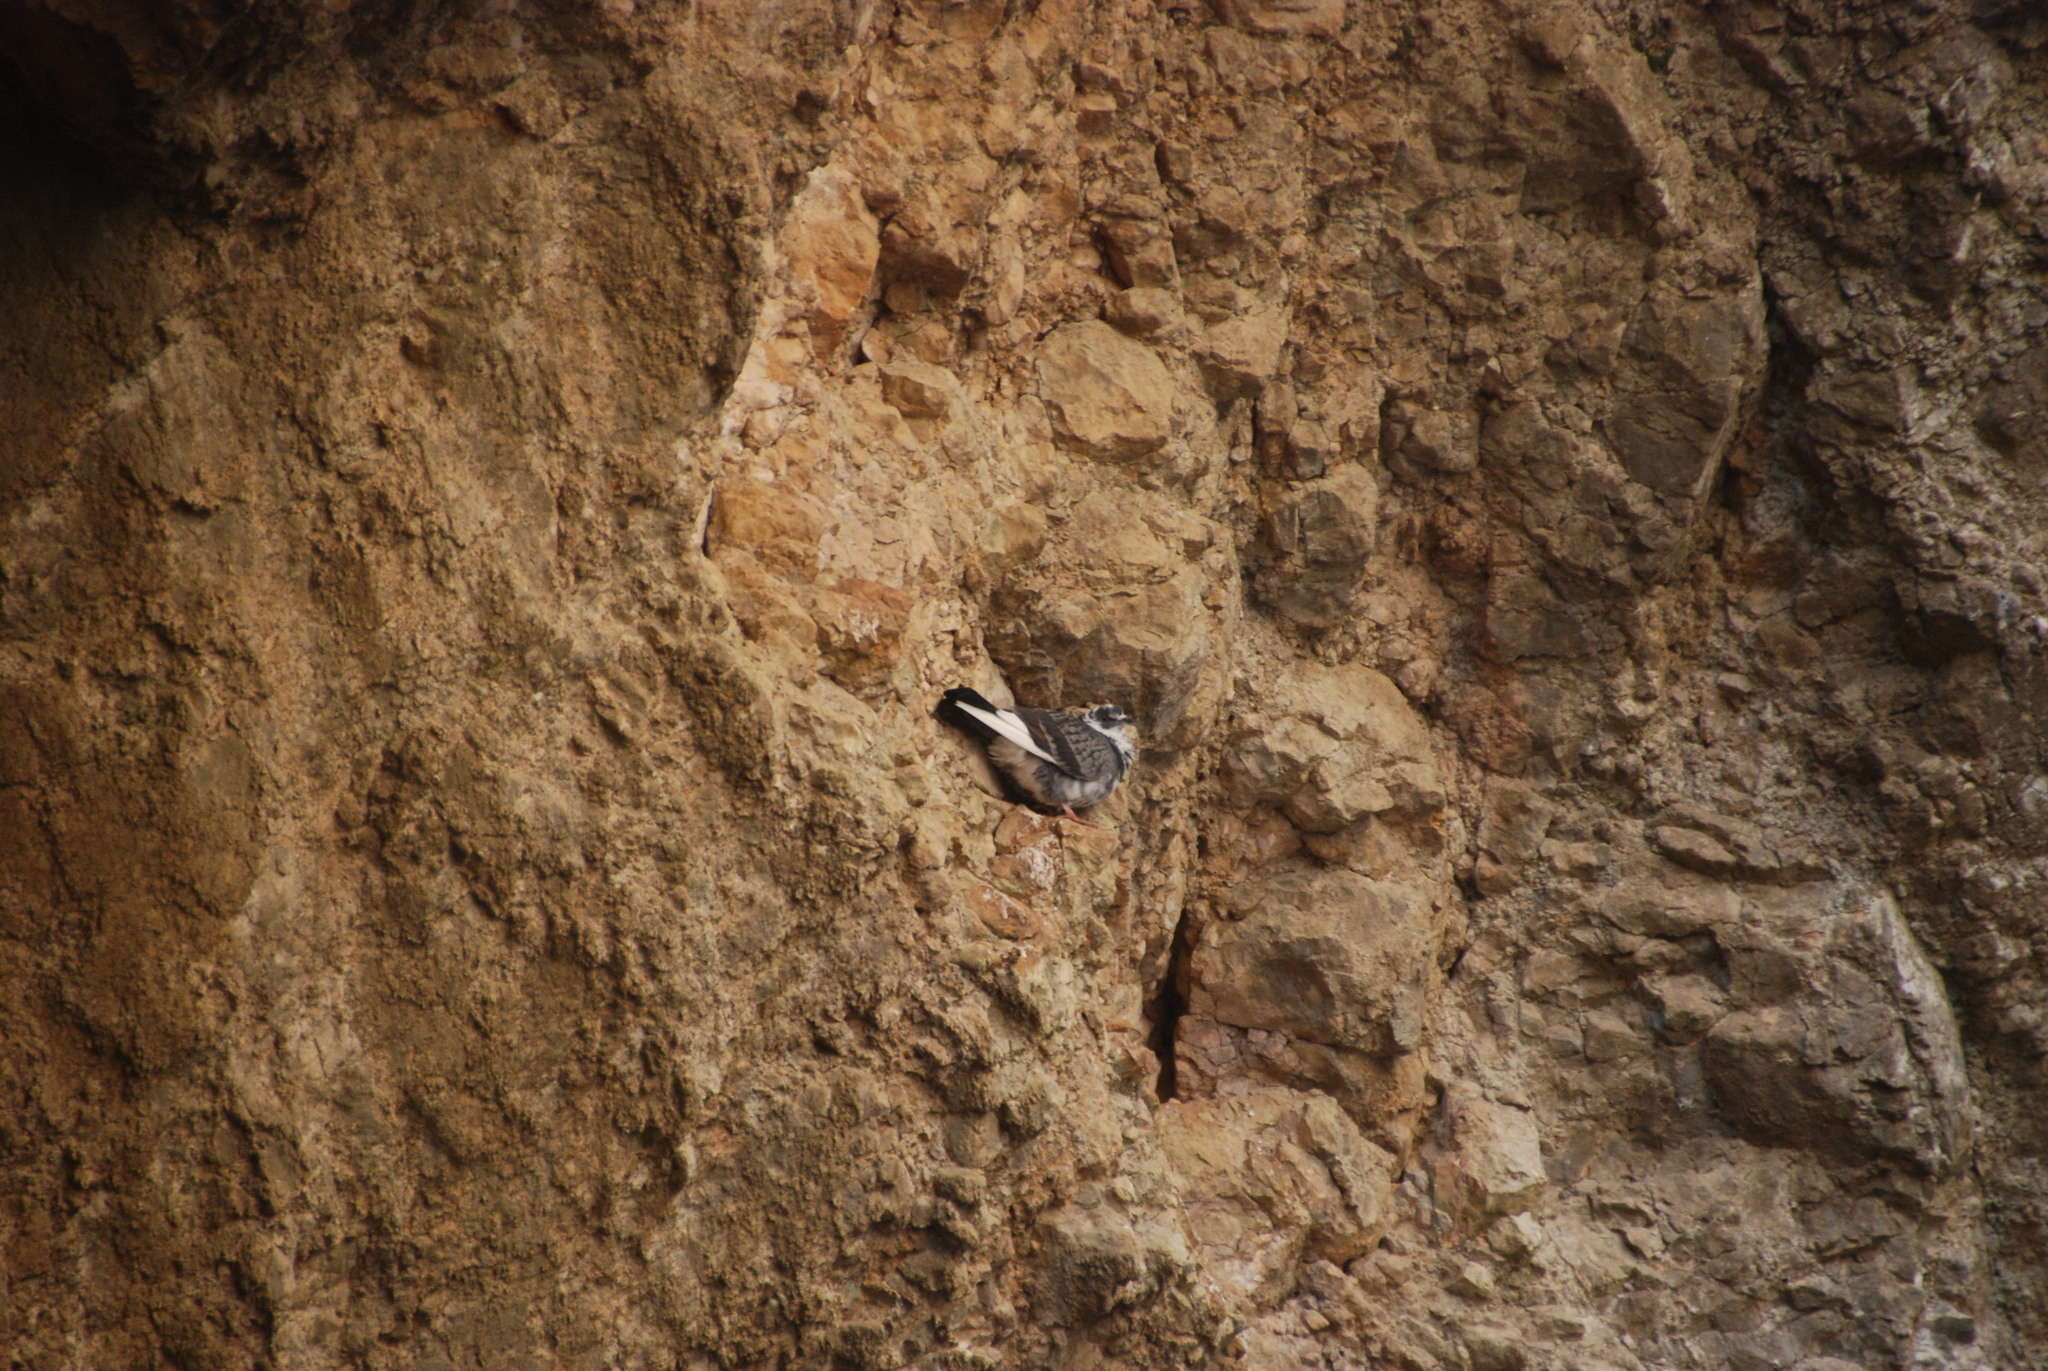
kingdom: Animalia
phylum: Chordata
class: Aves
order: Columbiformes
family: Columbidae
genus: Columba
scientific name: Columba livia
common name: Rock pigeon
